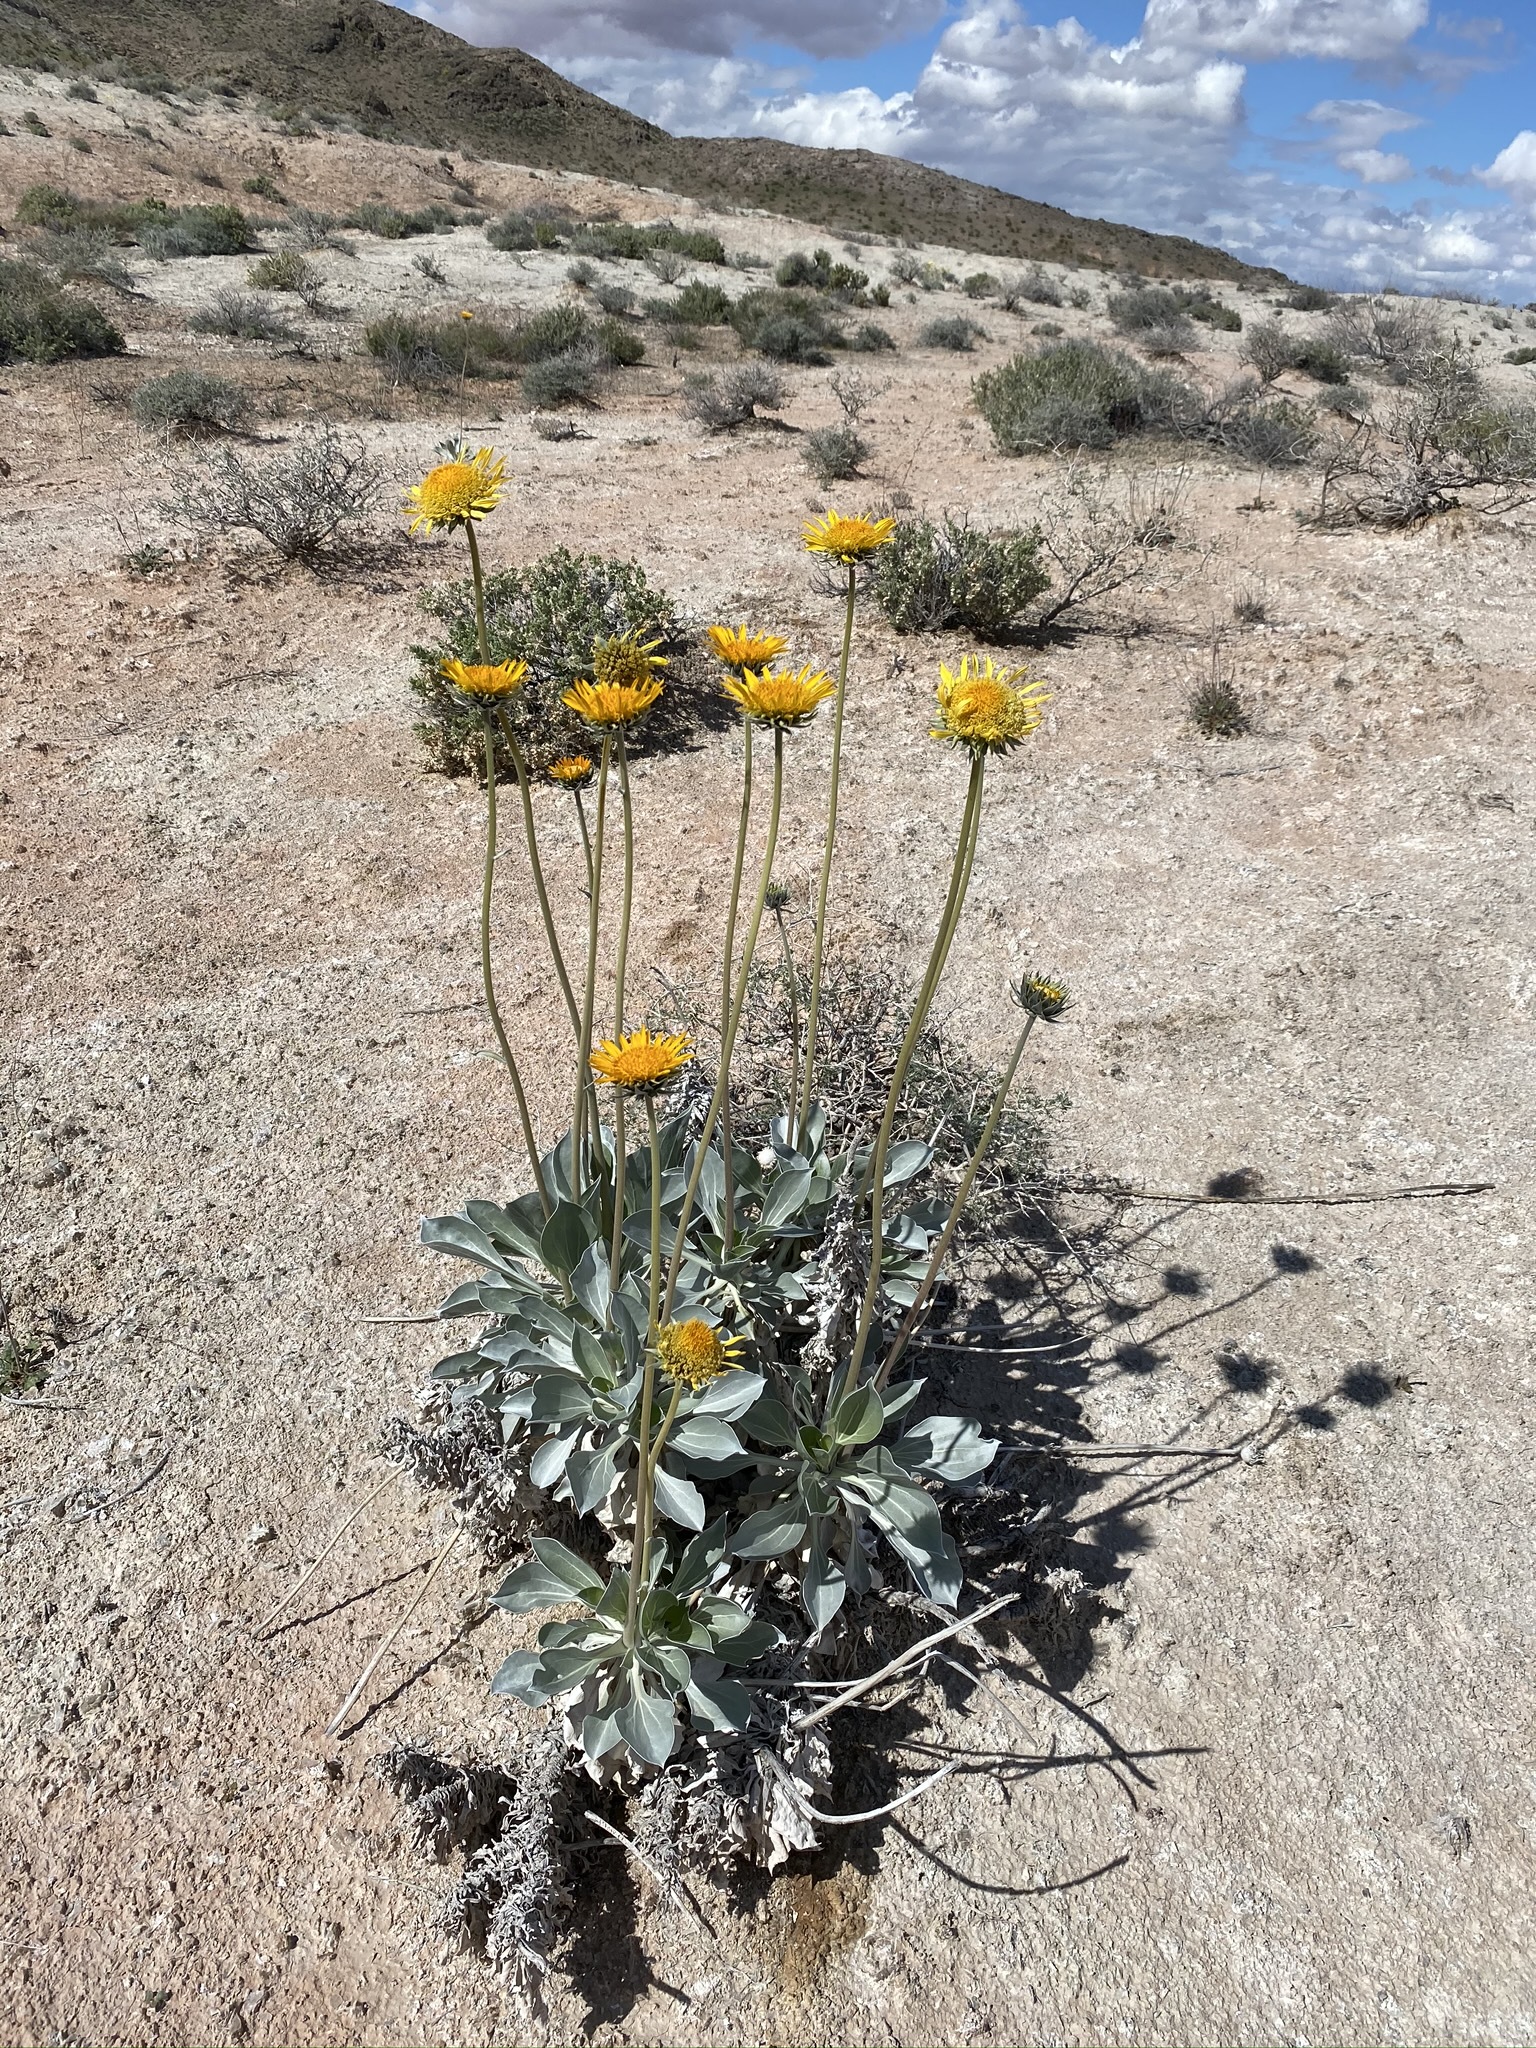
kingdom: Plantae
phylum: Tracheophyta
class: Magnoliopsida
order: Asterales
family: Asteraceae
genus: Enceliopsis
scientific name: Enceliopsis argophylla
